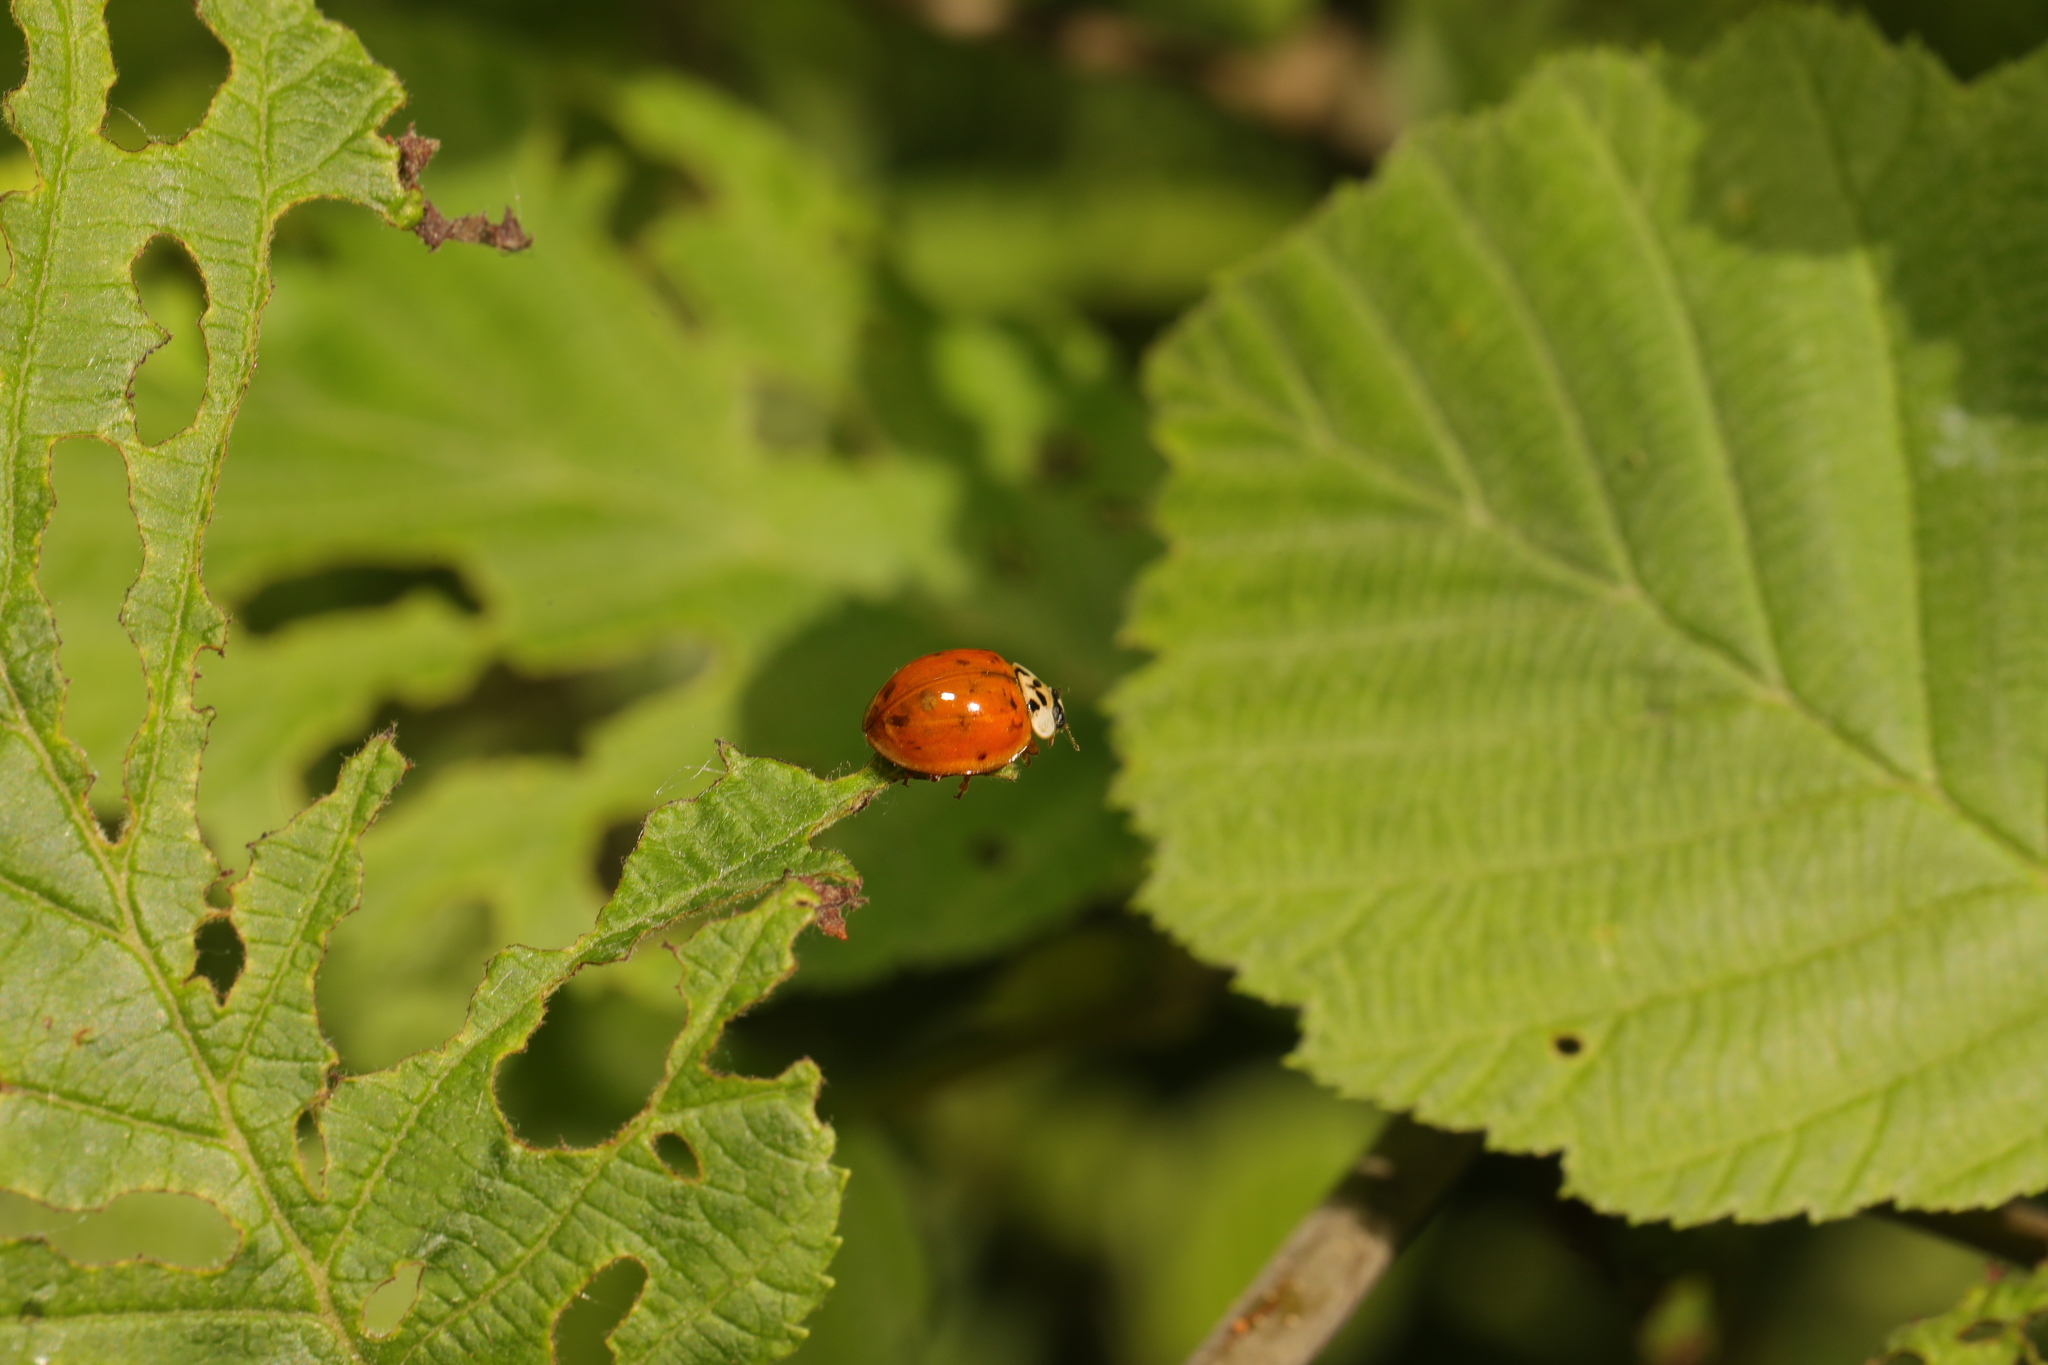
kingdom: Animalia
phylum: Arthropoda
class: Insecta
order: Coleoptera
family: Coccinellidae
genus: Harmonia
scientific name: Harmonia axyridis
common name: Harlequin ladybird
